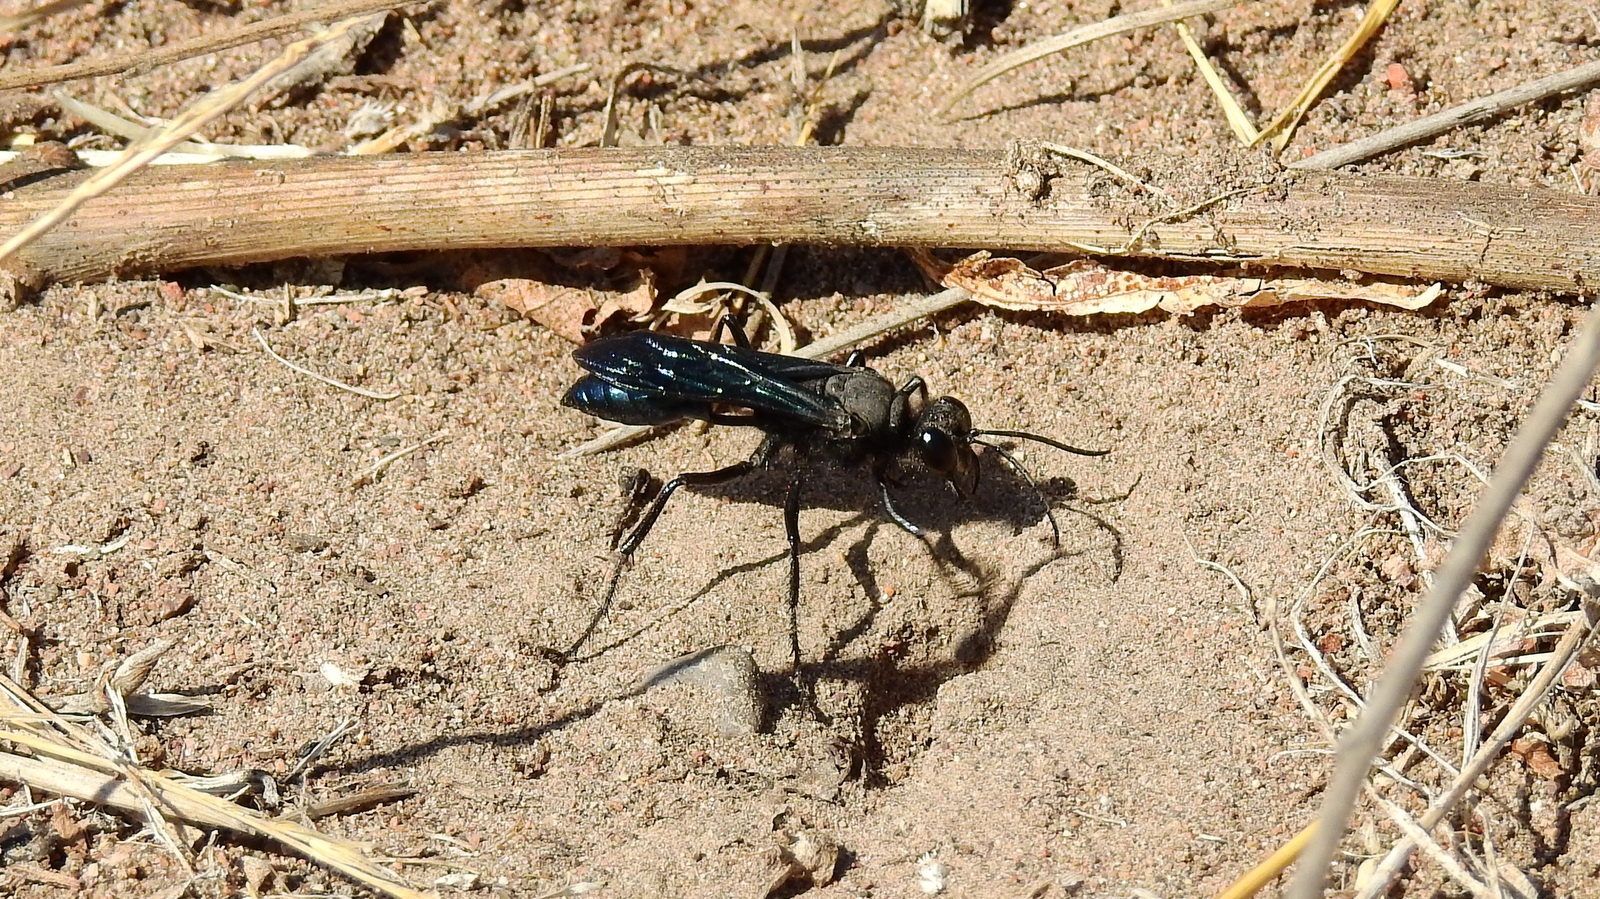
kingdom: Animalia
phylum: Arthropoda
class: Insecta
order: Hymenoptera
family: Sphecidae
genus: Stangeella
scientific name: Stangeella cyaniventris
